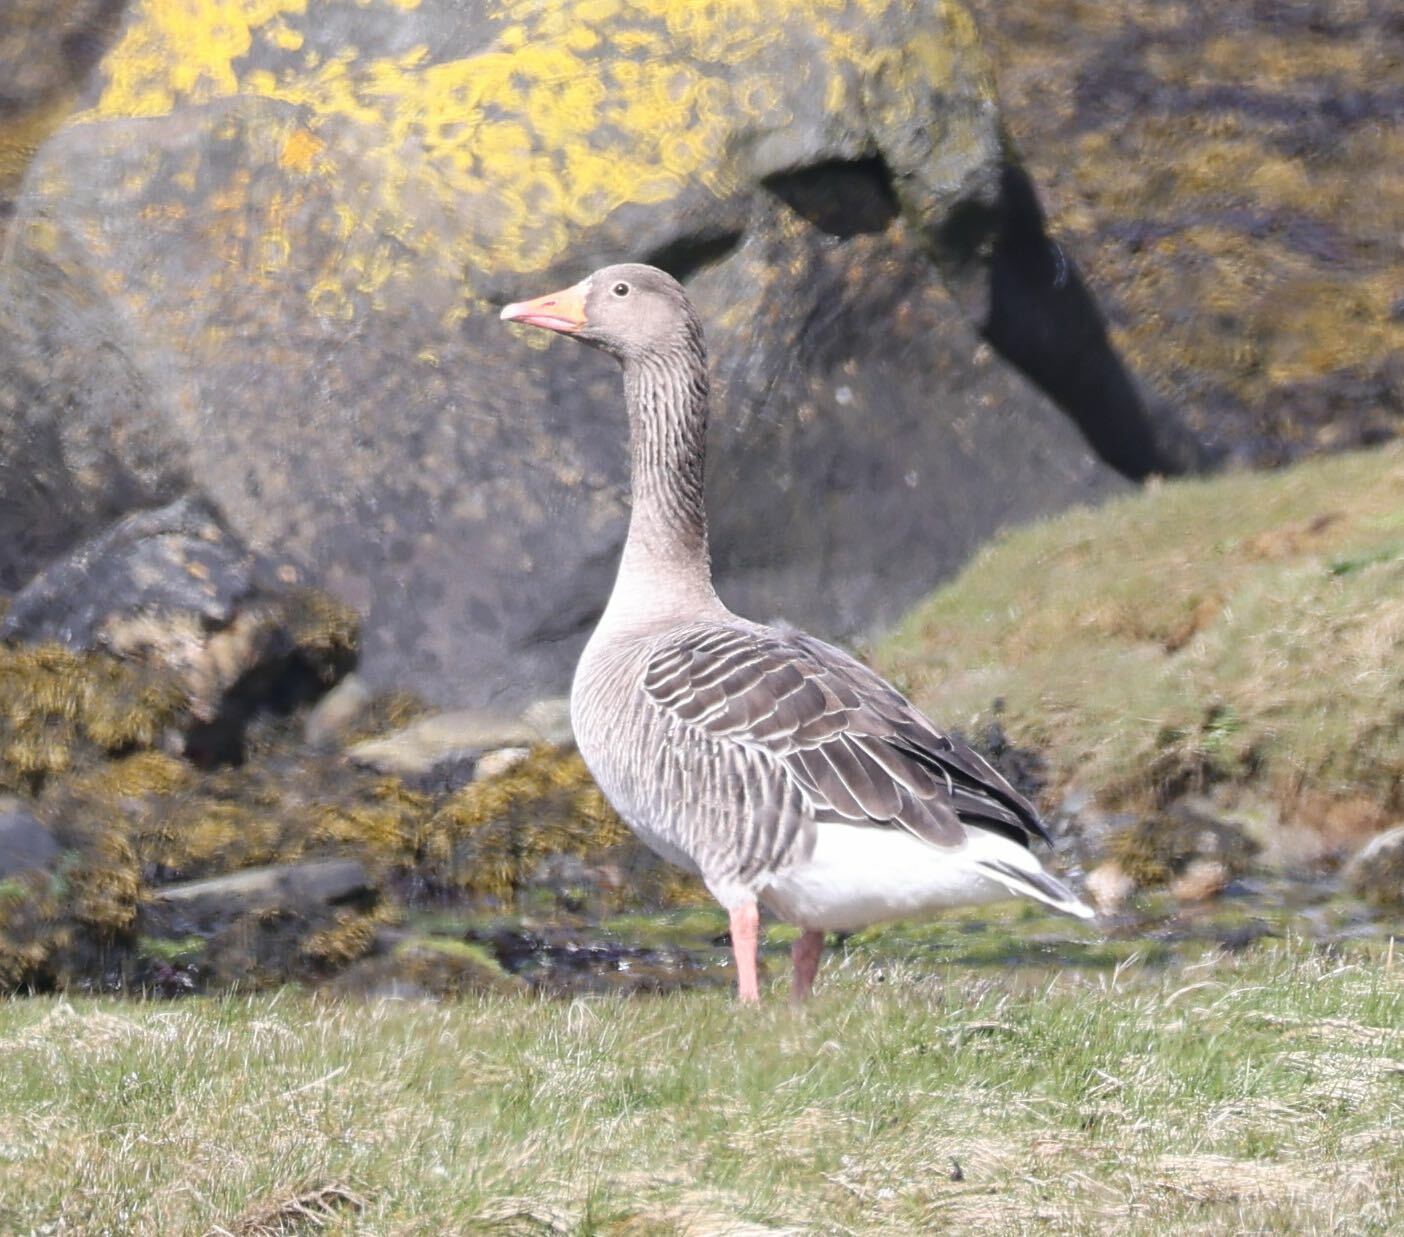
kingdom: Animalia
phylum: Chordata
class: Aves
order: Anseriformes
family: Anatidae
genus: Anser
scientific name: Anser anser
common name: Greylag goose
